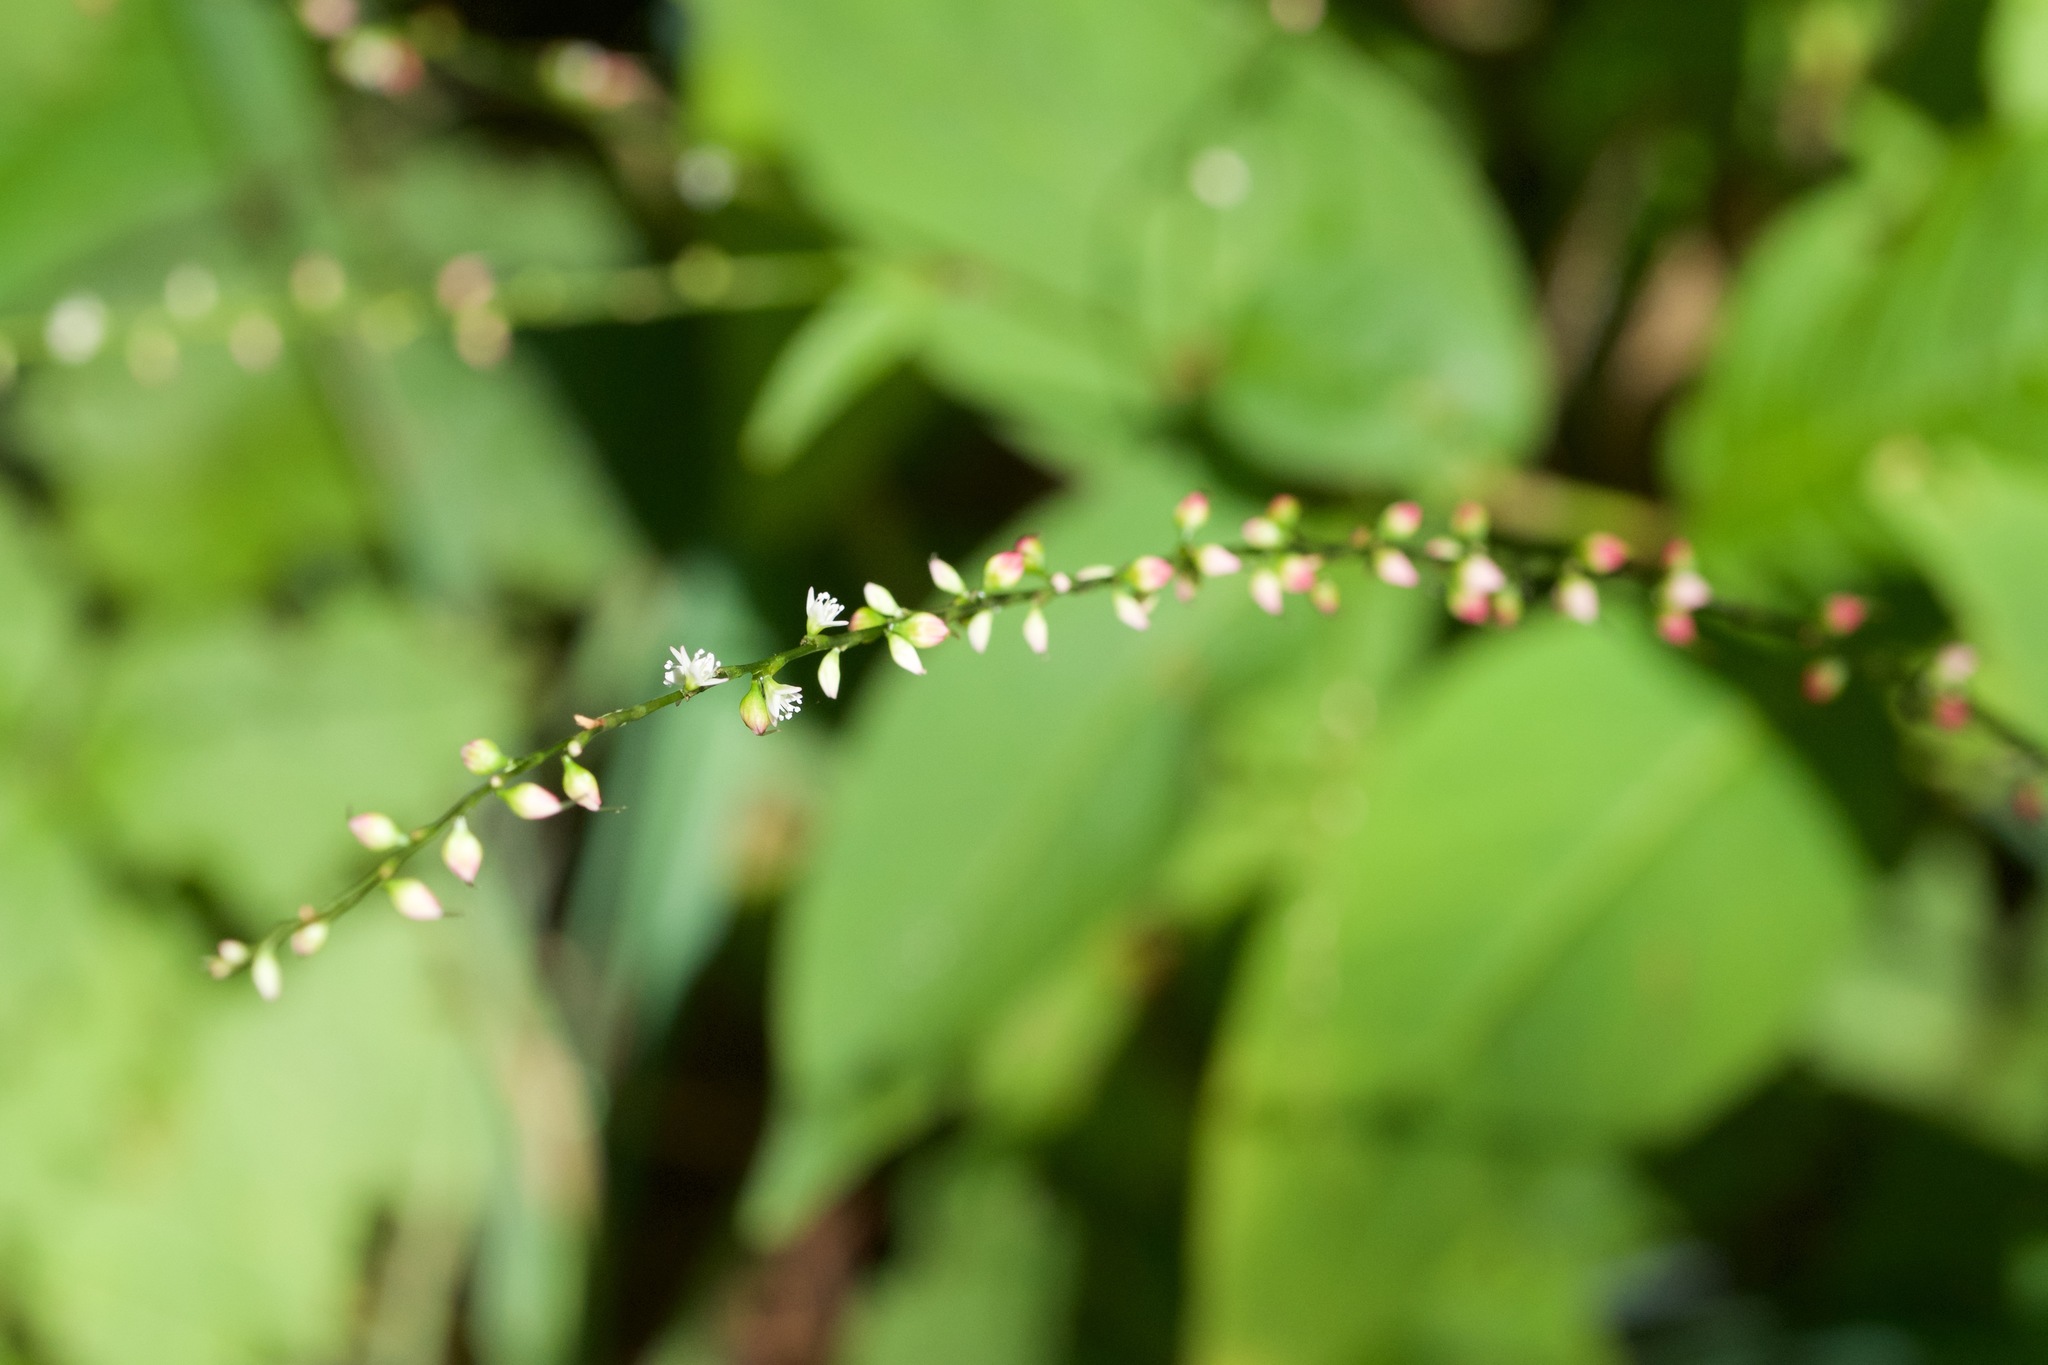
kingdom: Plantae
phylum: Tracheophyta
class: Magnoliopsida
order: Caryophyllales
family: Polygonaceae
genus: Persicaria
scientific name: Persicaria virginiana
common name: Jumpseed
